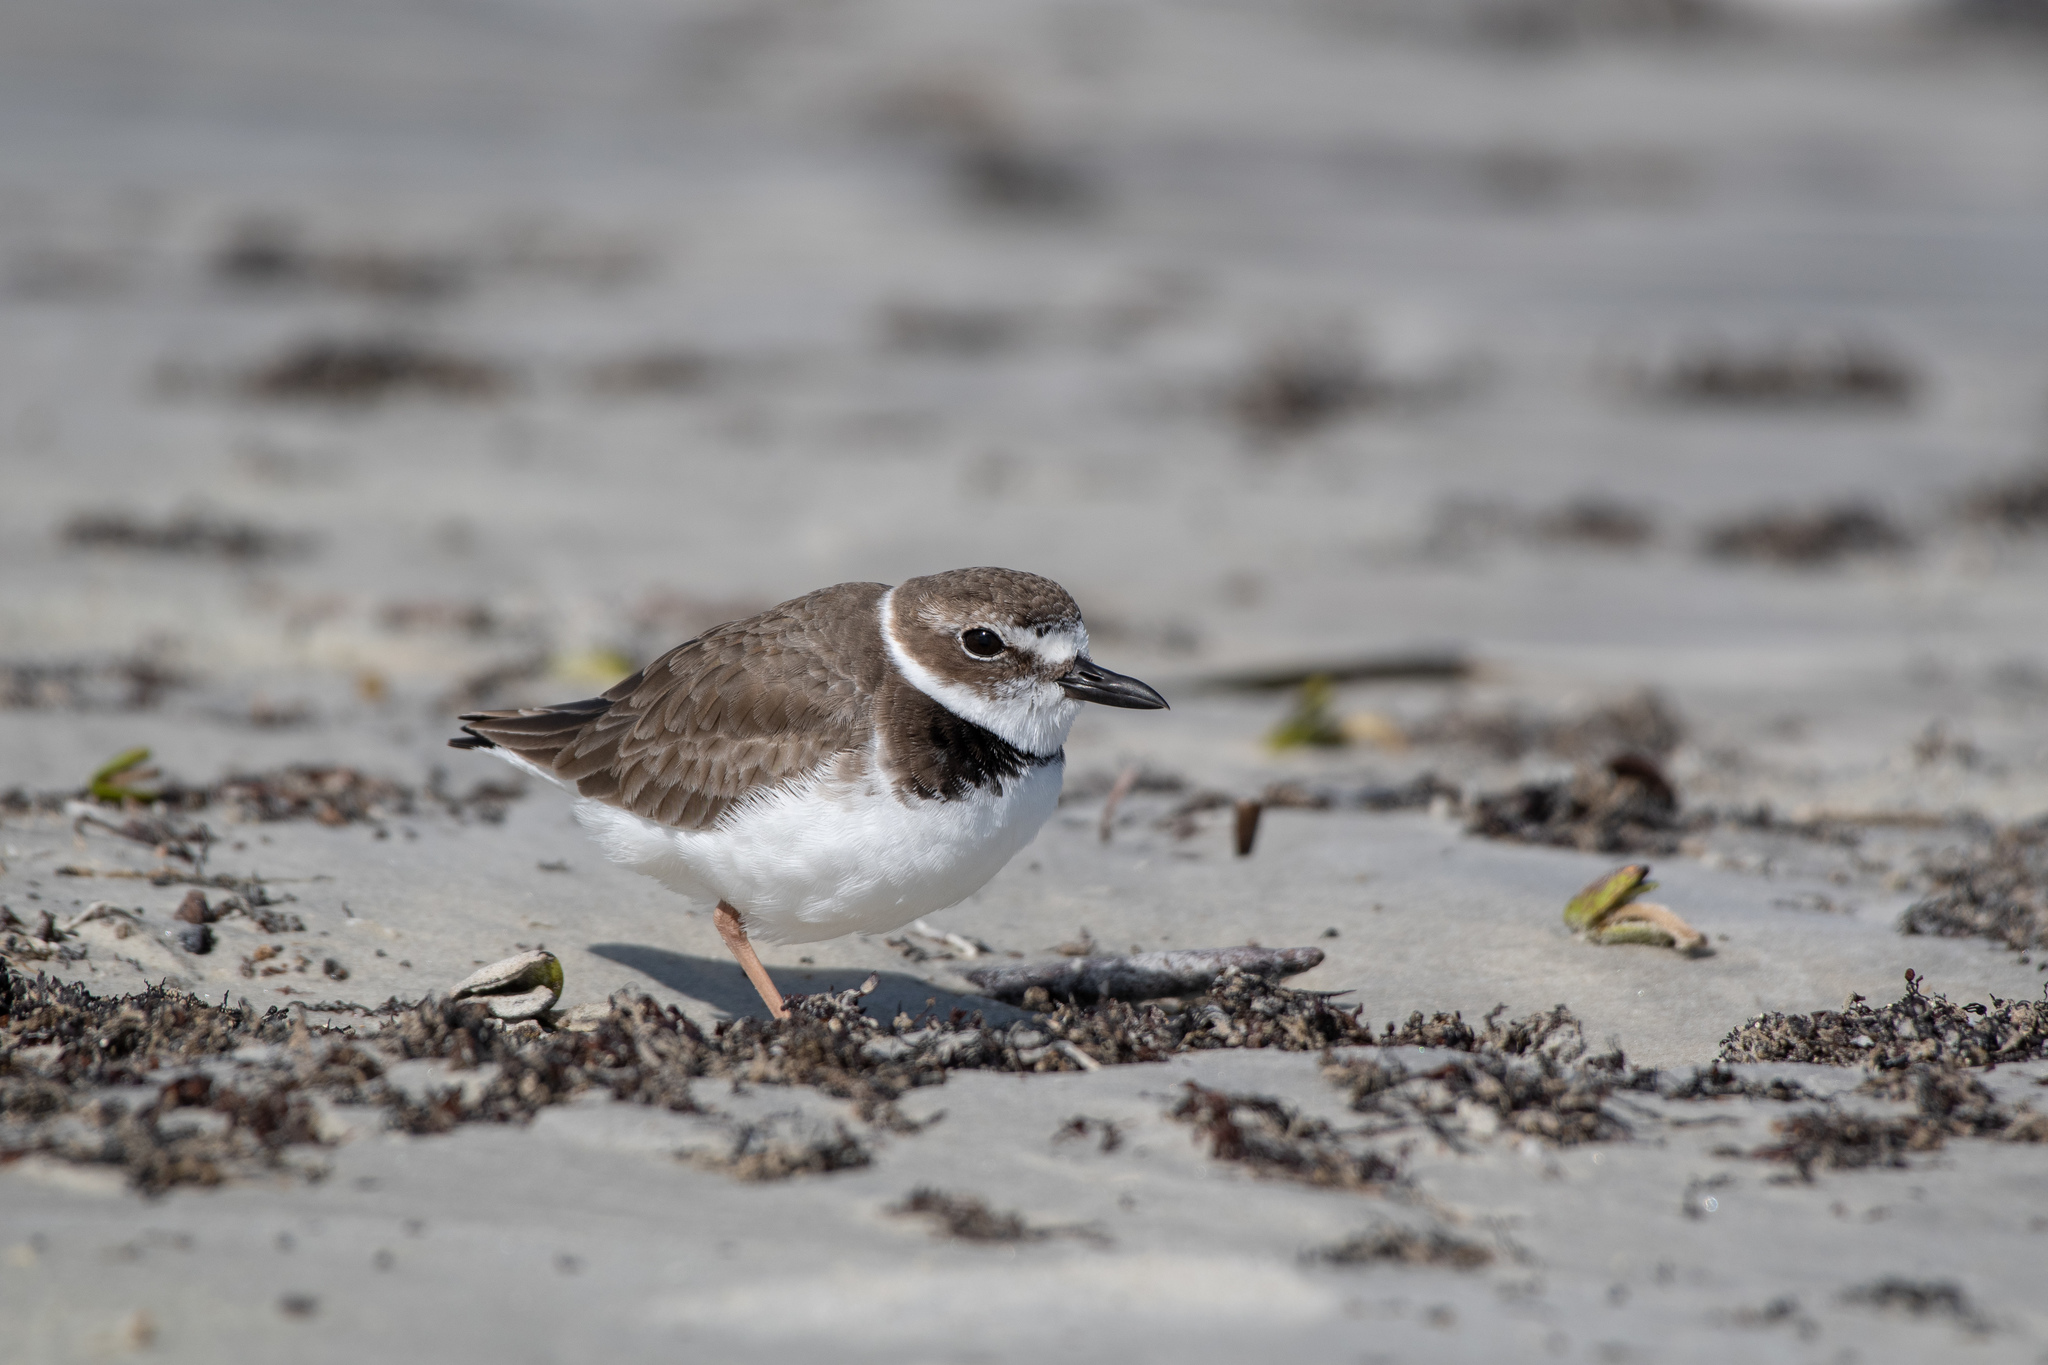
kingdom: Animalia
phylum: Chordata
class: Aves
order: Charadriiformes
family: Charadriidae
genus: Anarhynchus
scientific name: Anarhynchus
